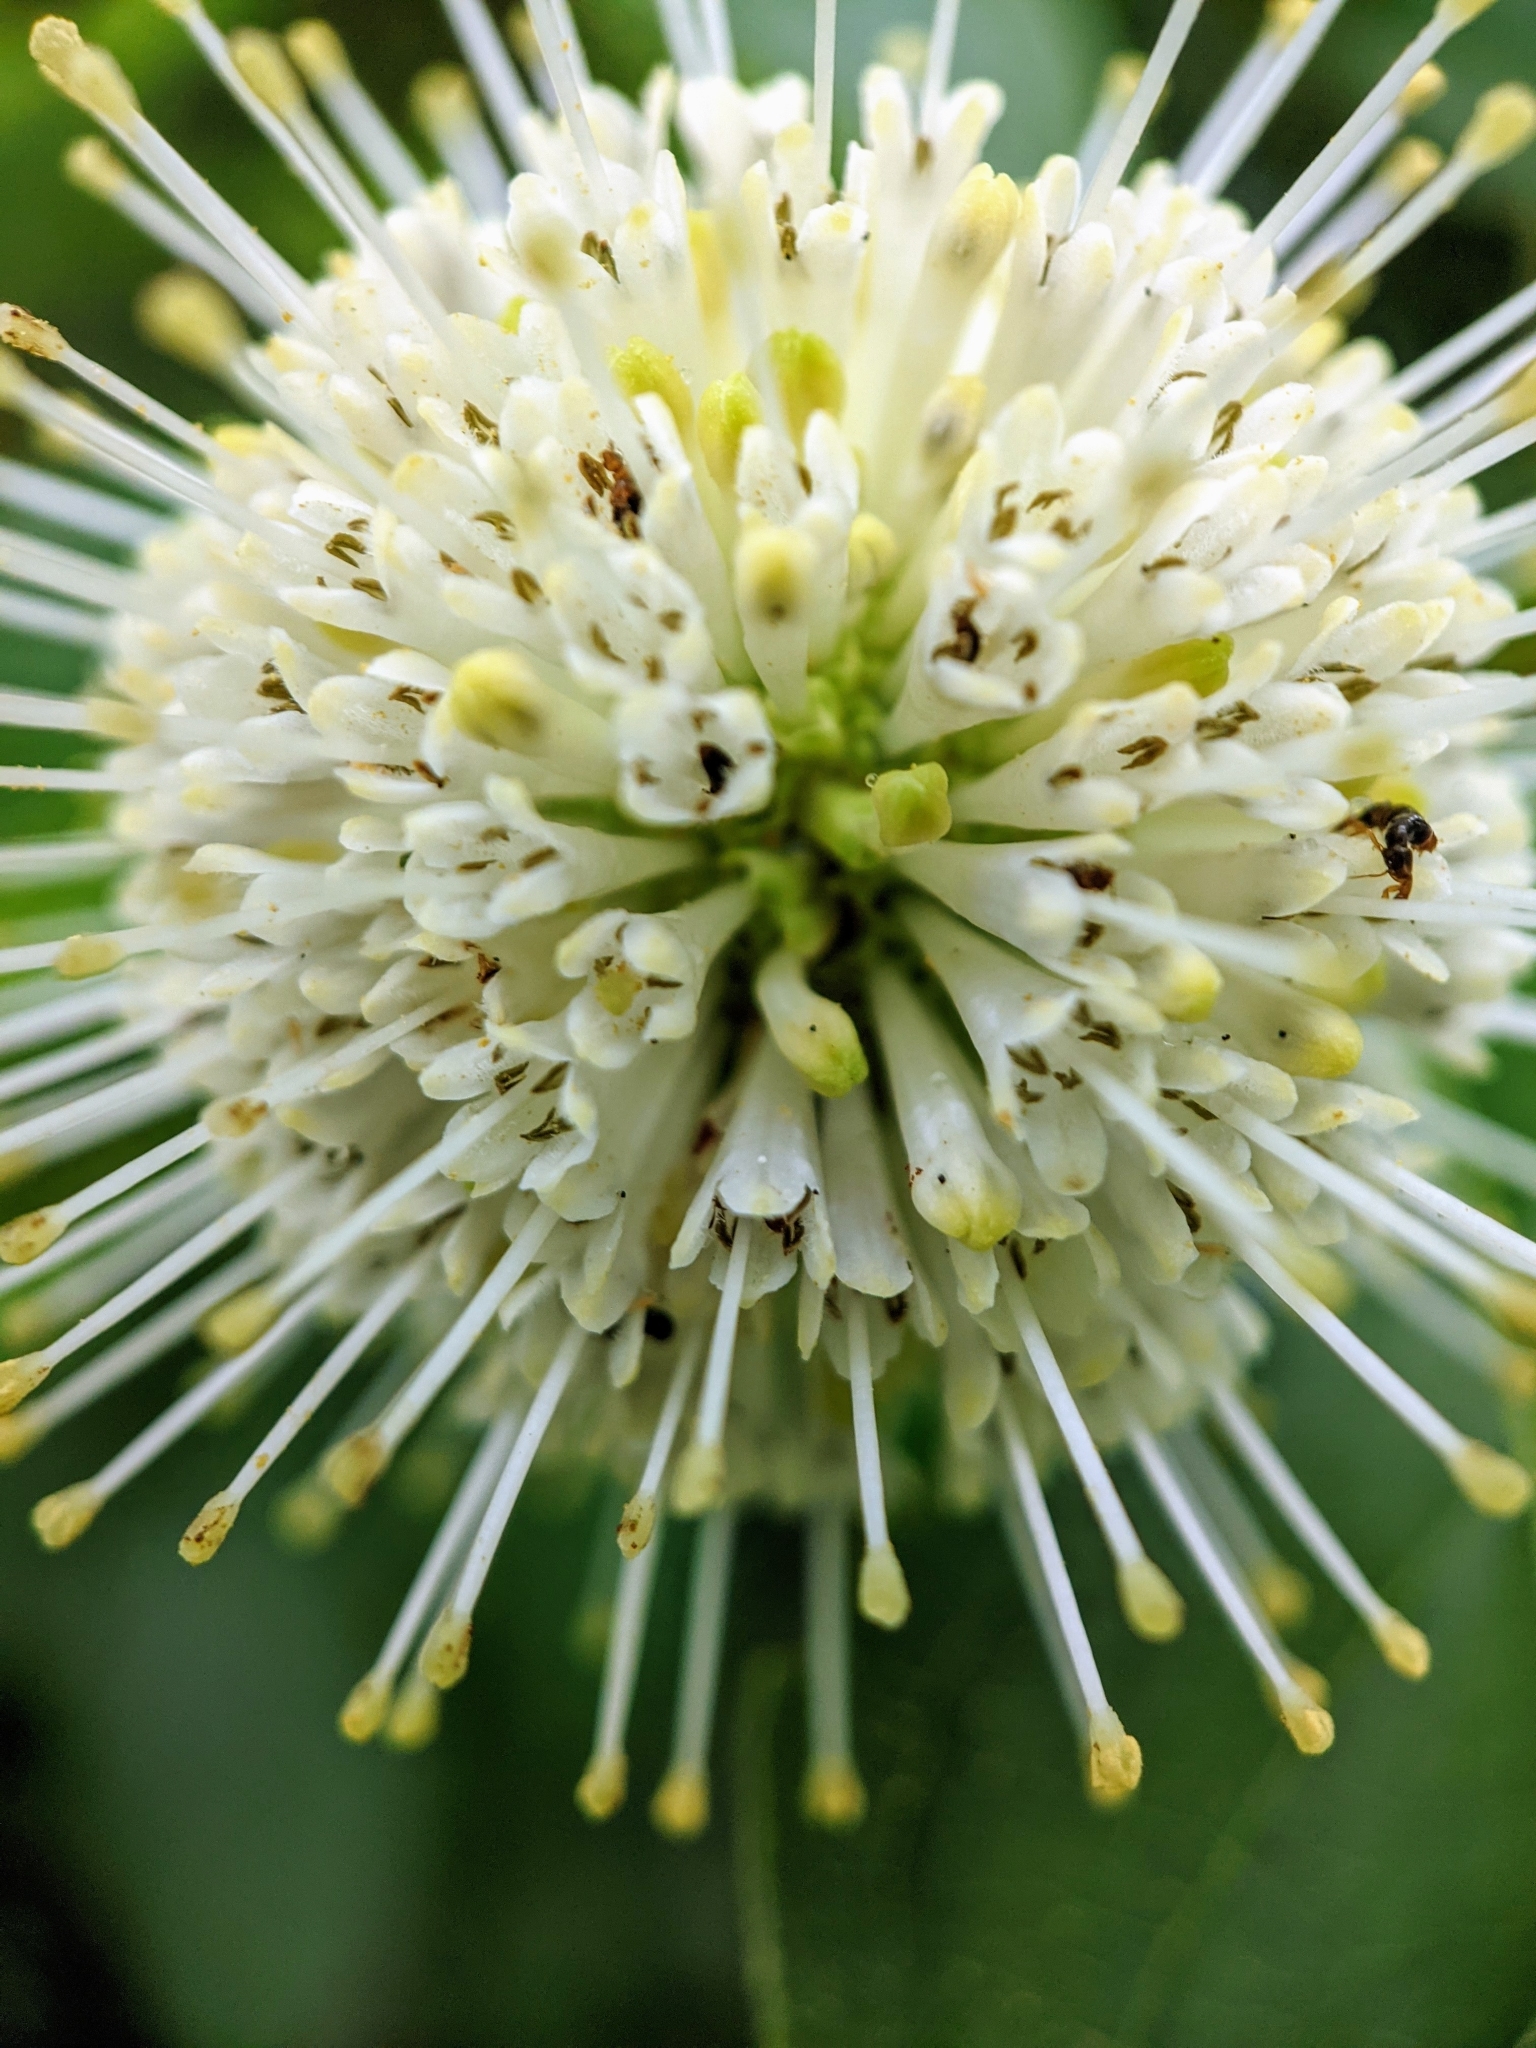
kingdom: Plantae
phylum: Tracheophyta
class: Magnoliopsida
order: Gentianales
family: Rubiaceae
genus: Cephalanthus
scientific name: Cephalanthus occidentalis
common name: Button-willow
